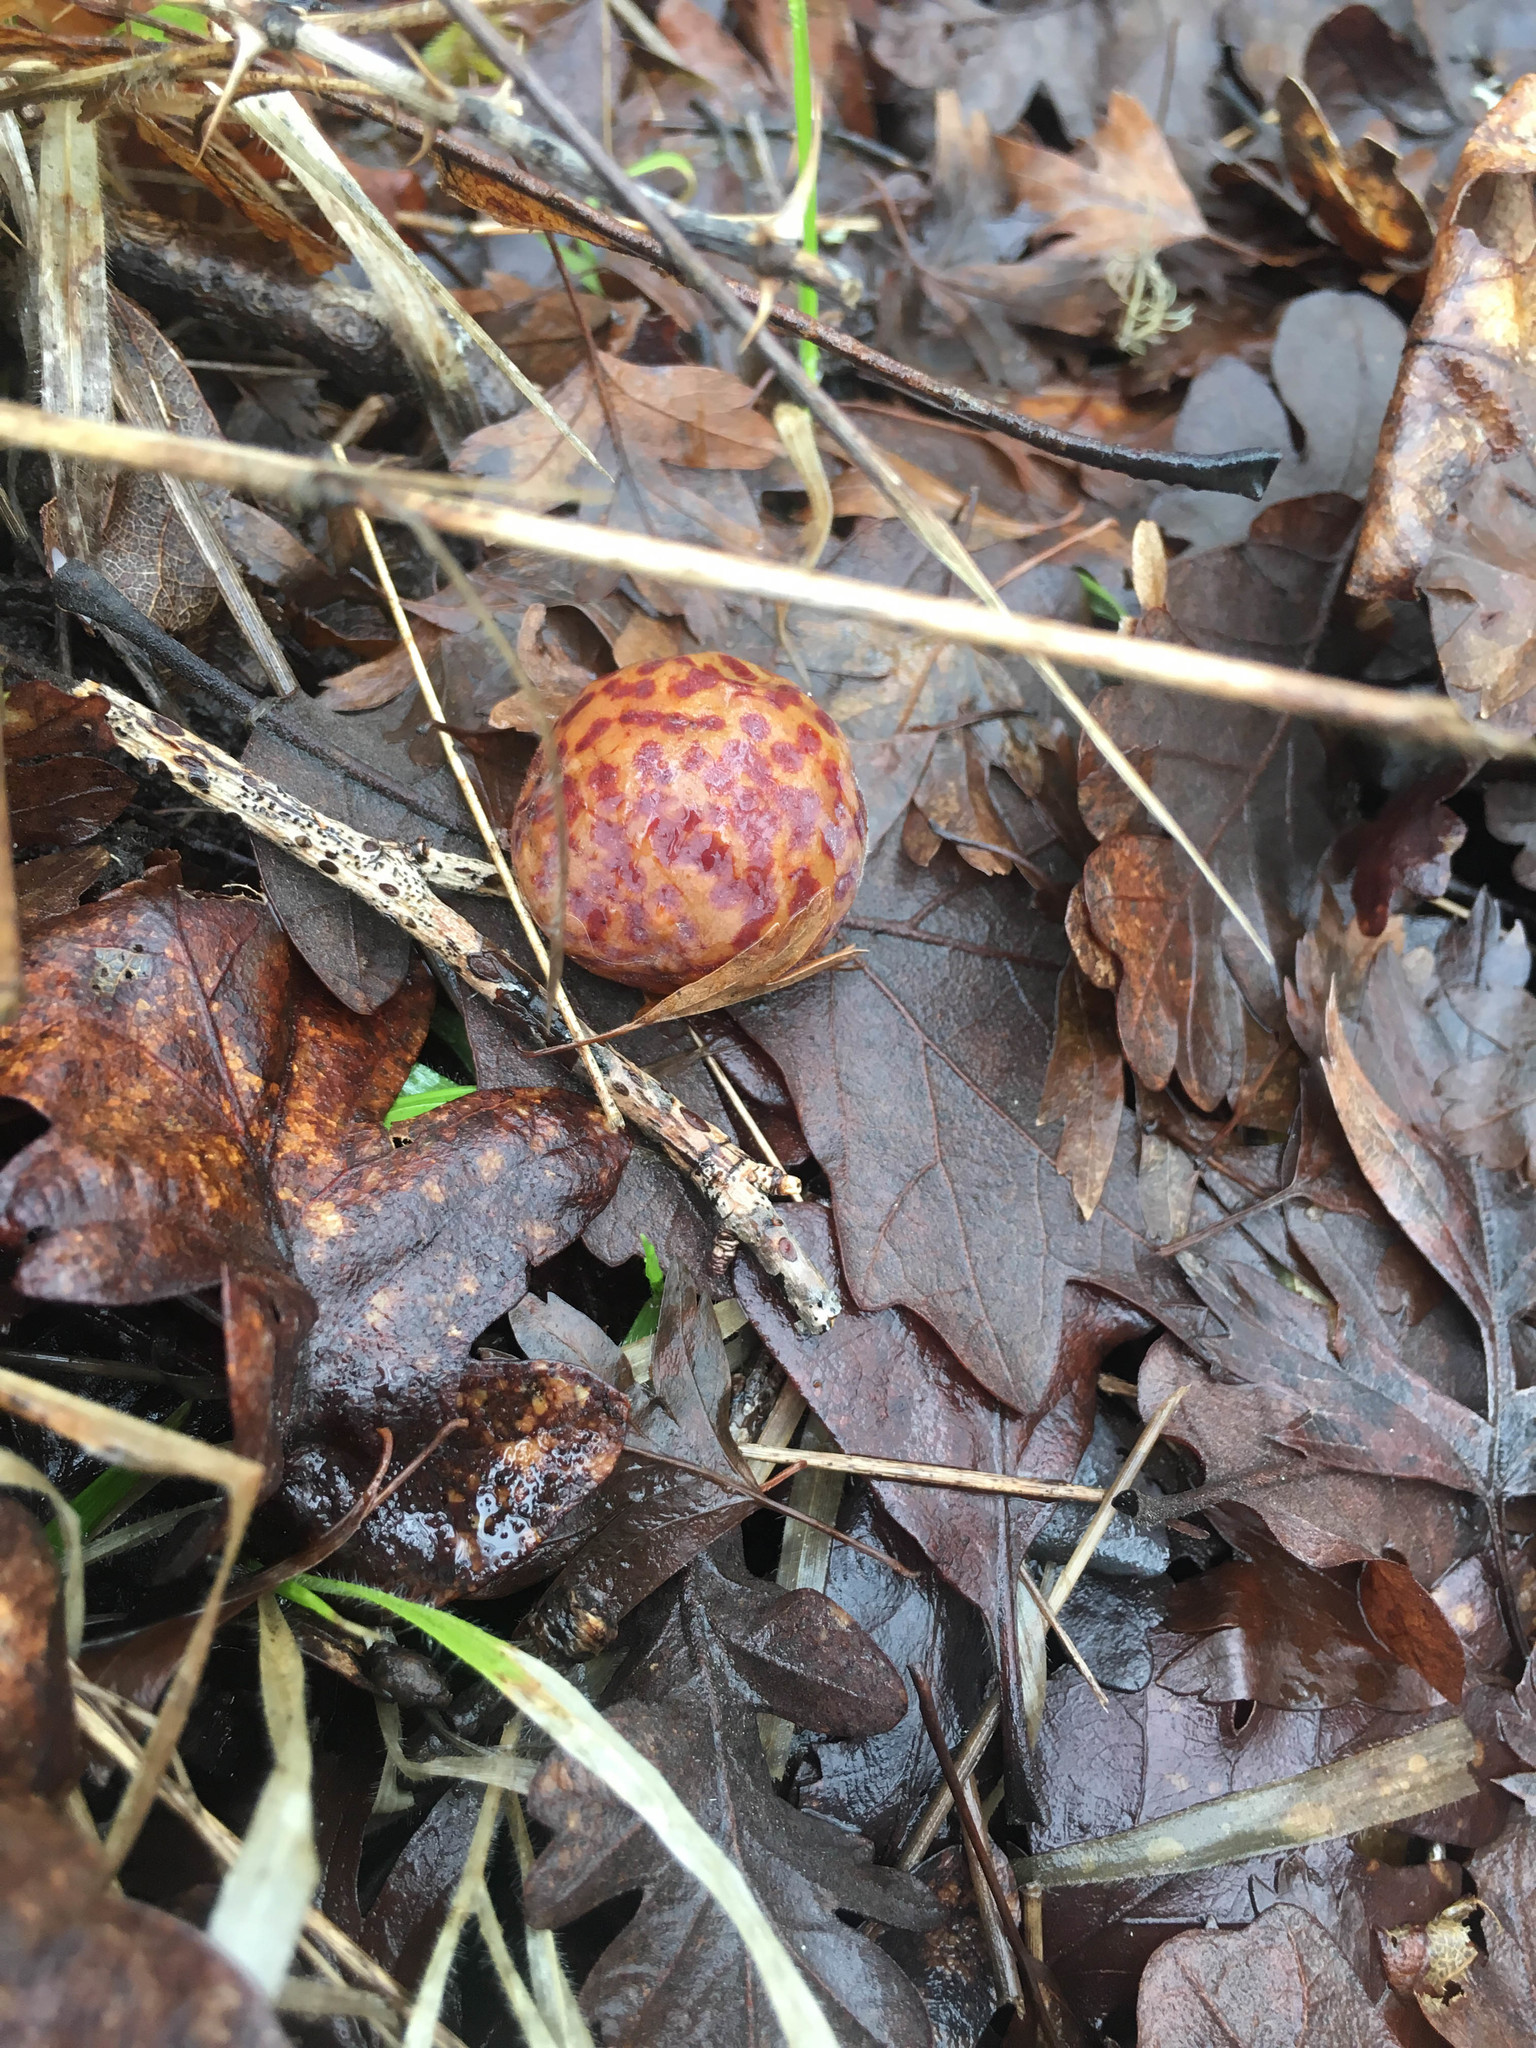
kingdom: Animalia
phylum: Arthropoda
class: Insecta
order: Hymenoptera
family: Cynipidae
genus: Cynips
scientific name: Cynips
